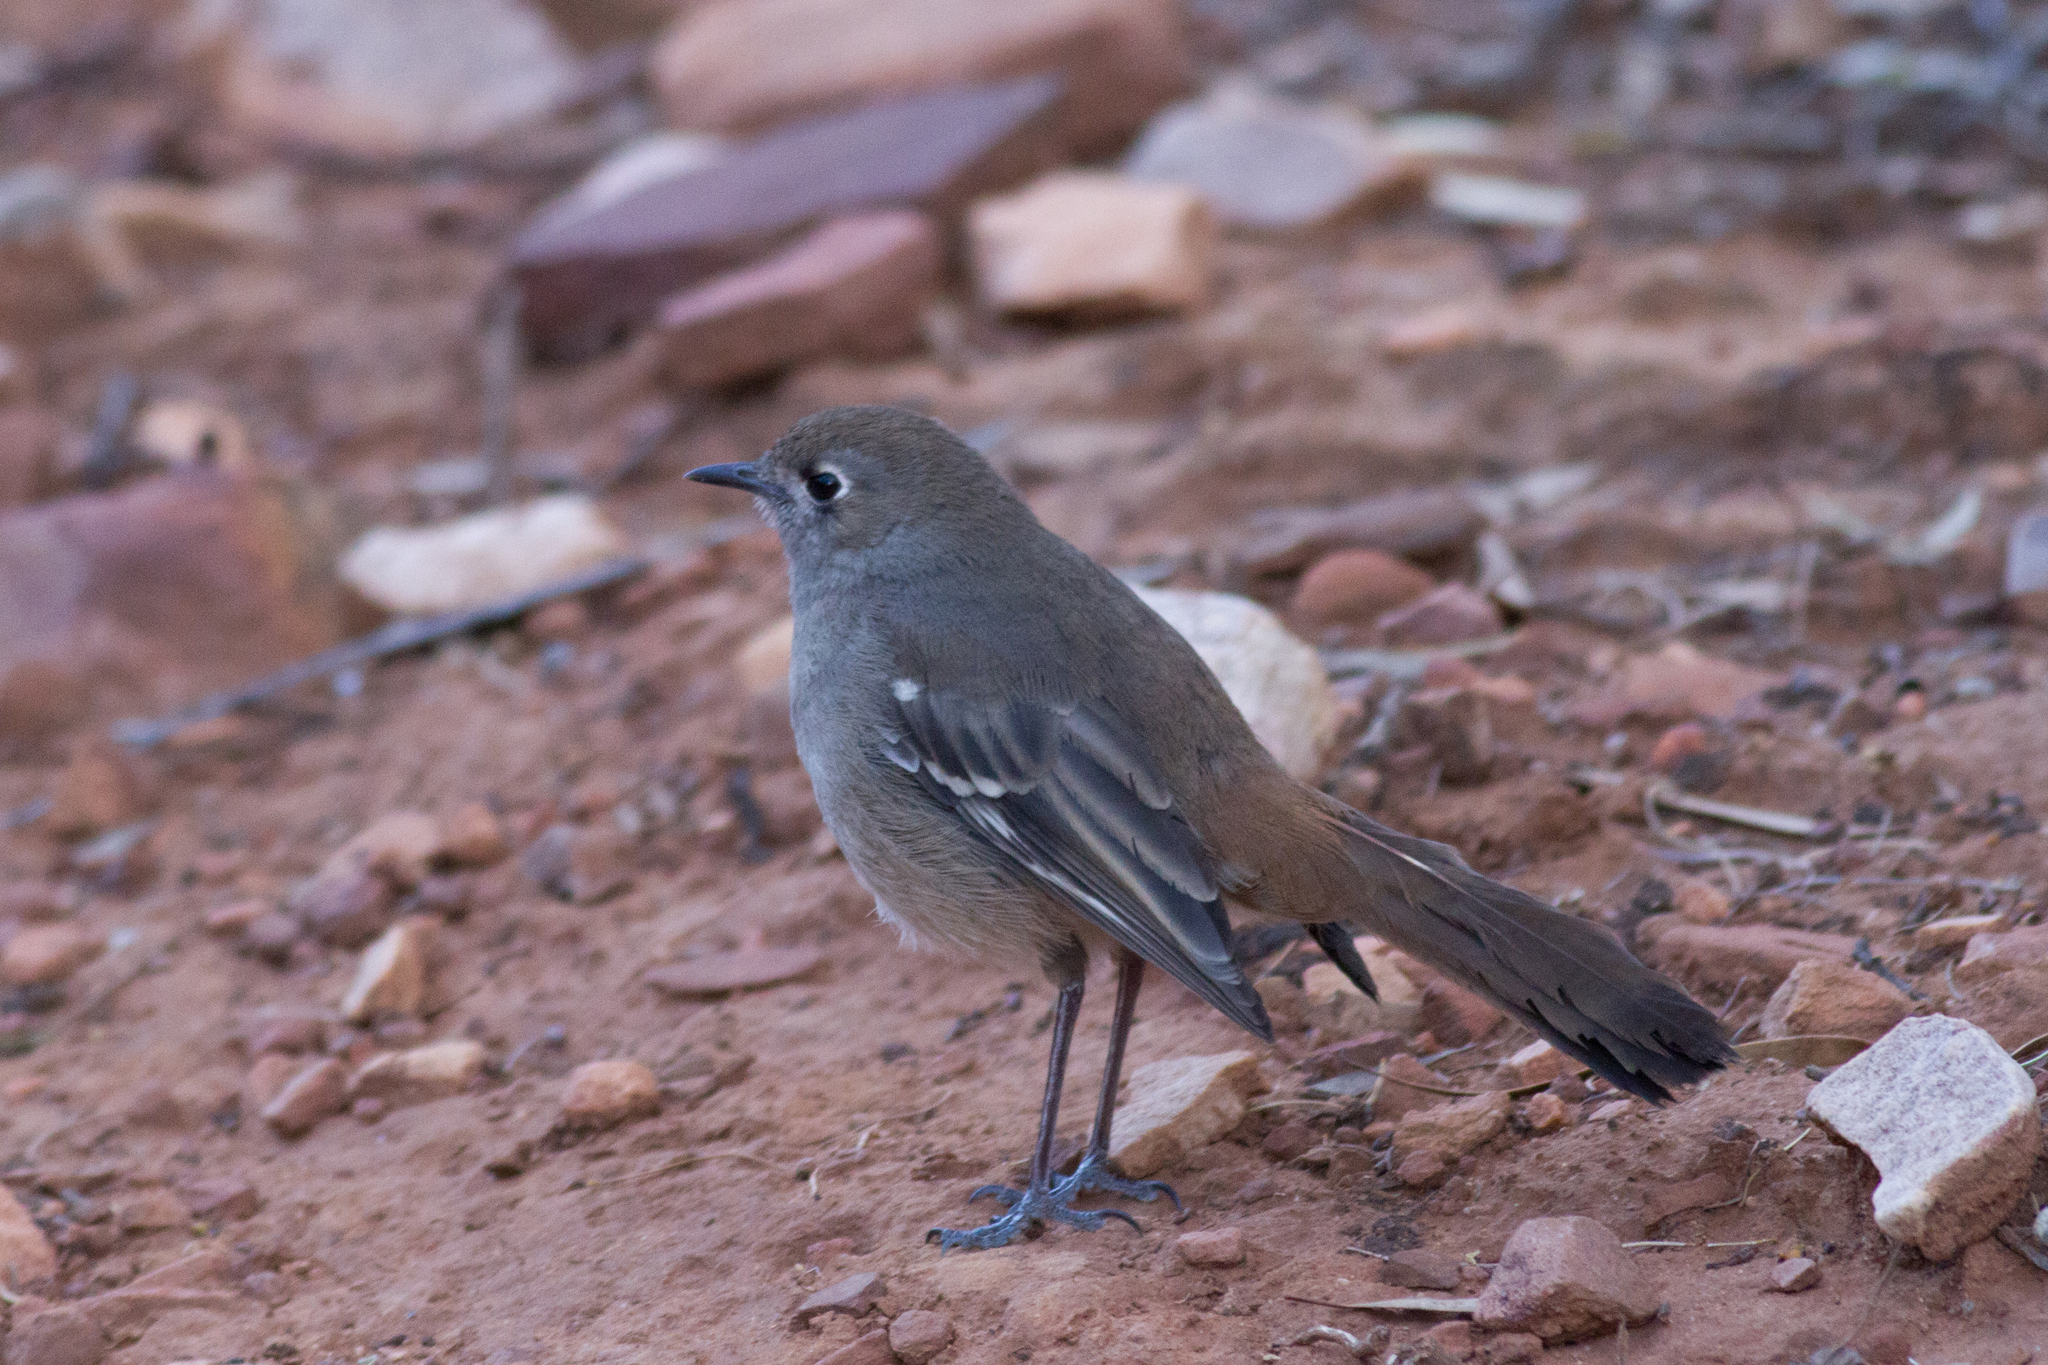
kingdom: Animalia
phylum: Chordata
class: Aves
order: Passeriformes
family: Petroicidae
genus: Drymodes
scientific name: Drymodes brunneopygia
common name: Southern scrub robin
